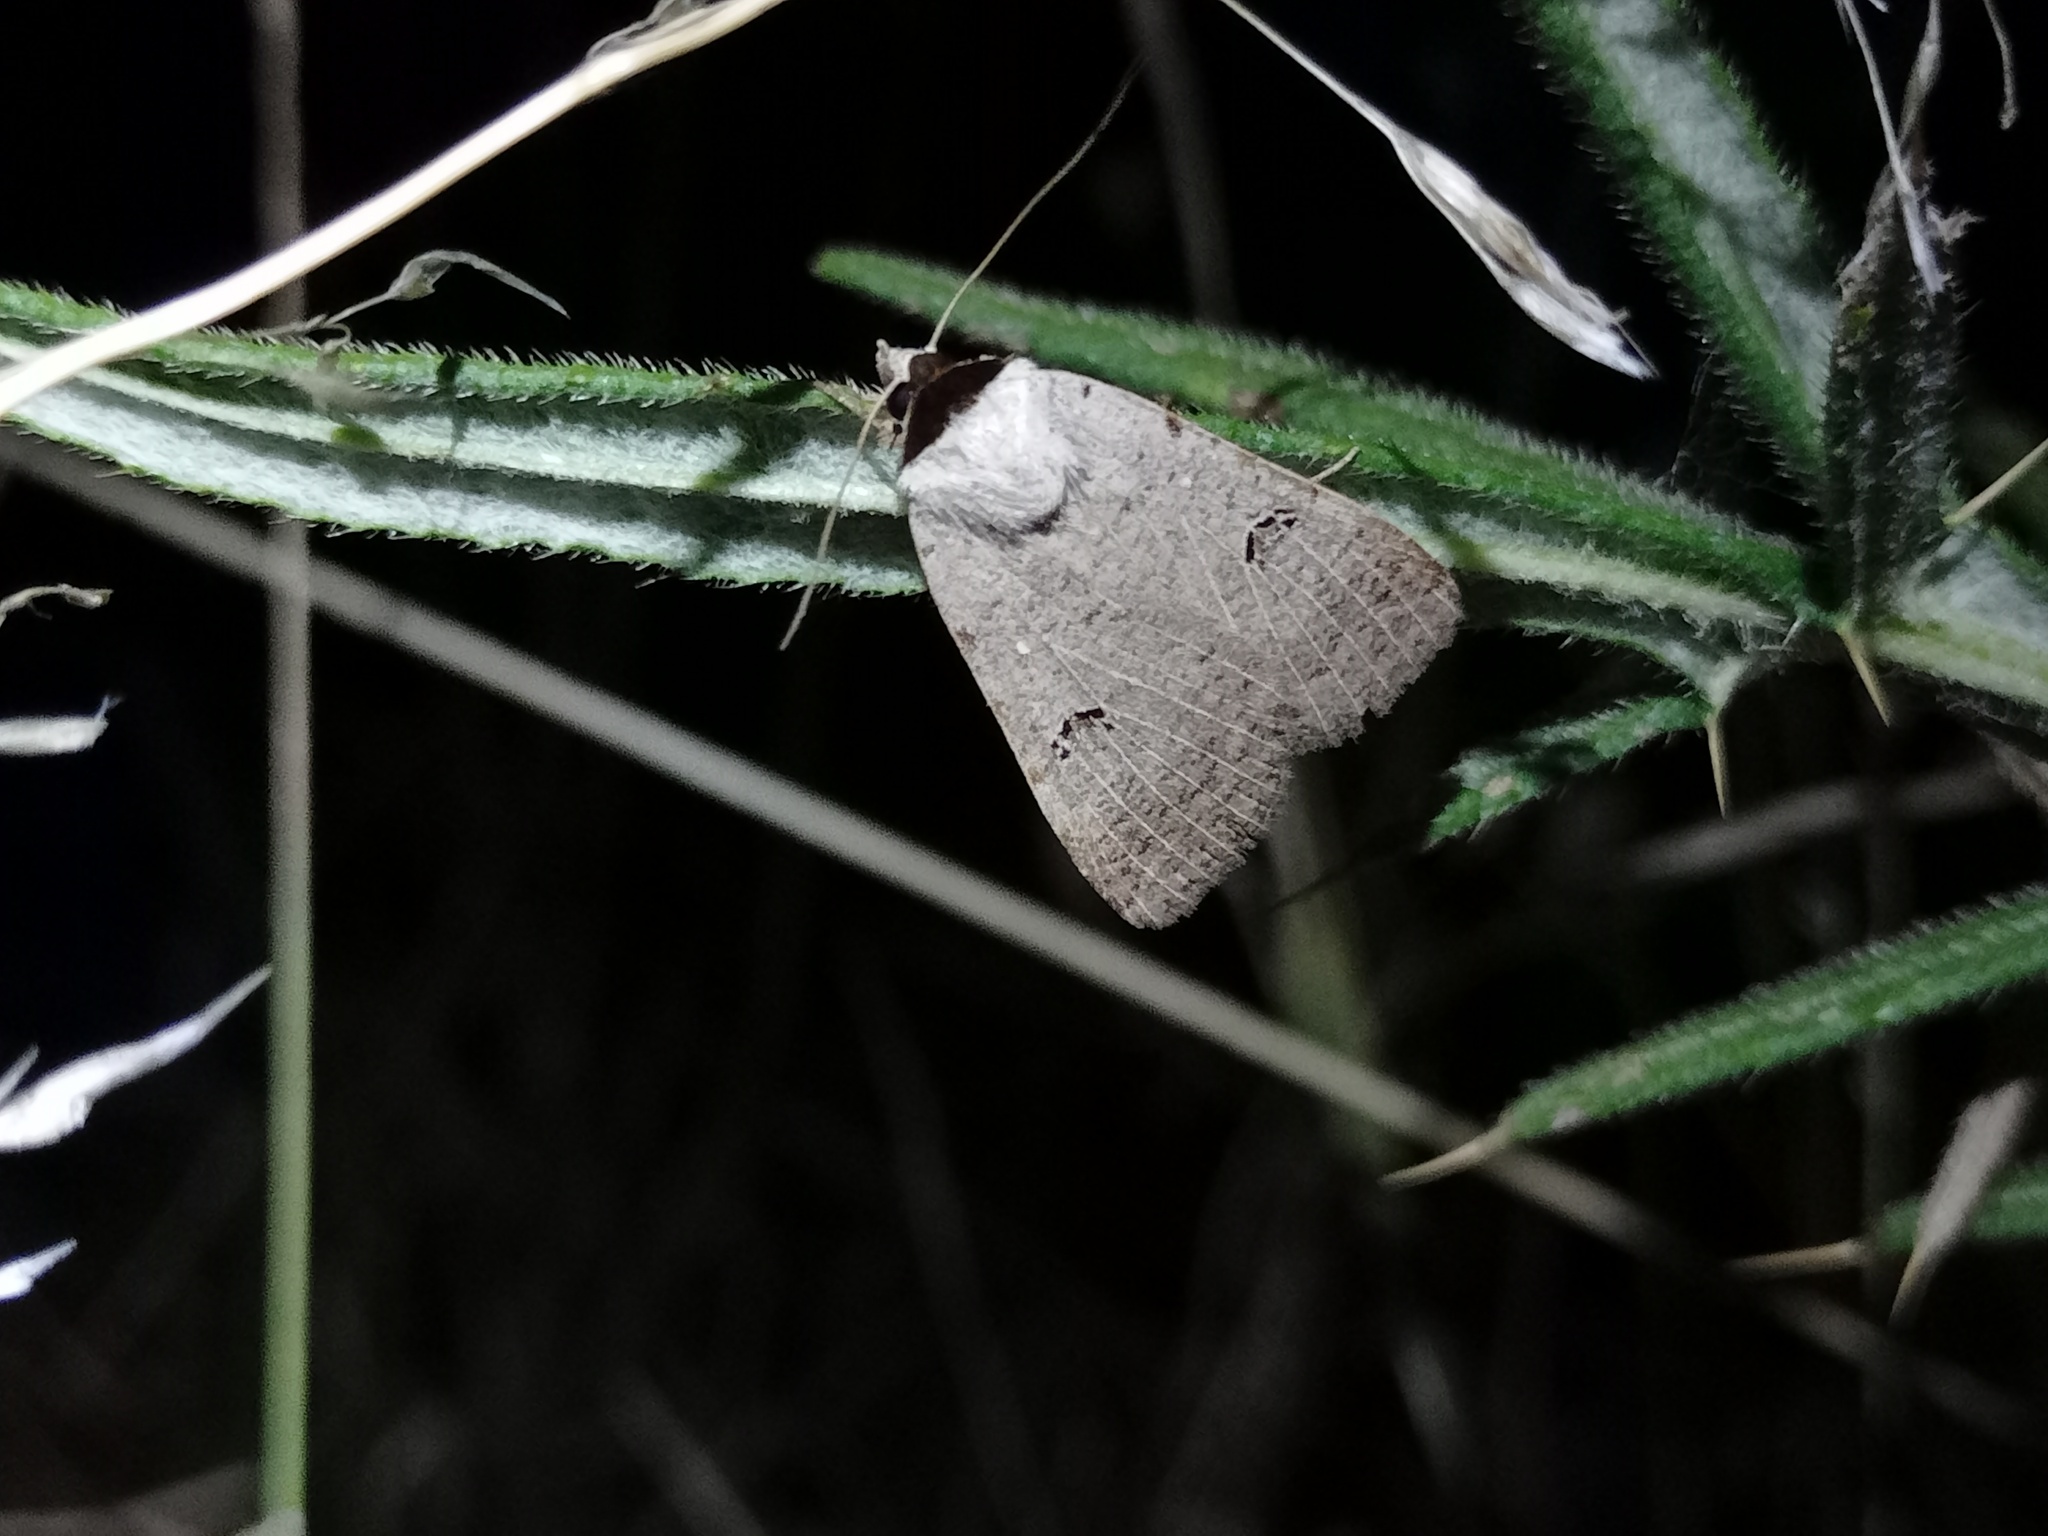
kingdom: Animalia
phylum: Arthropoda
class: Insecta
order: Lepidoptera
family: Erebidae
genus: Lygephila
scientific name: Lygephila craccae
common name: Scarce blackneck
